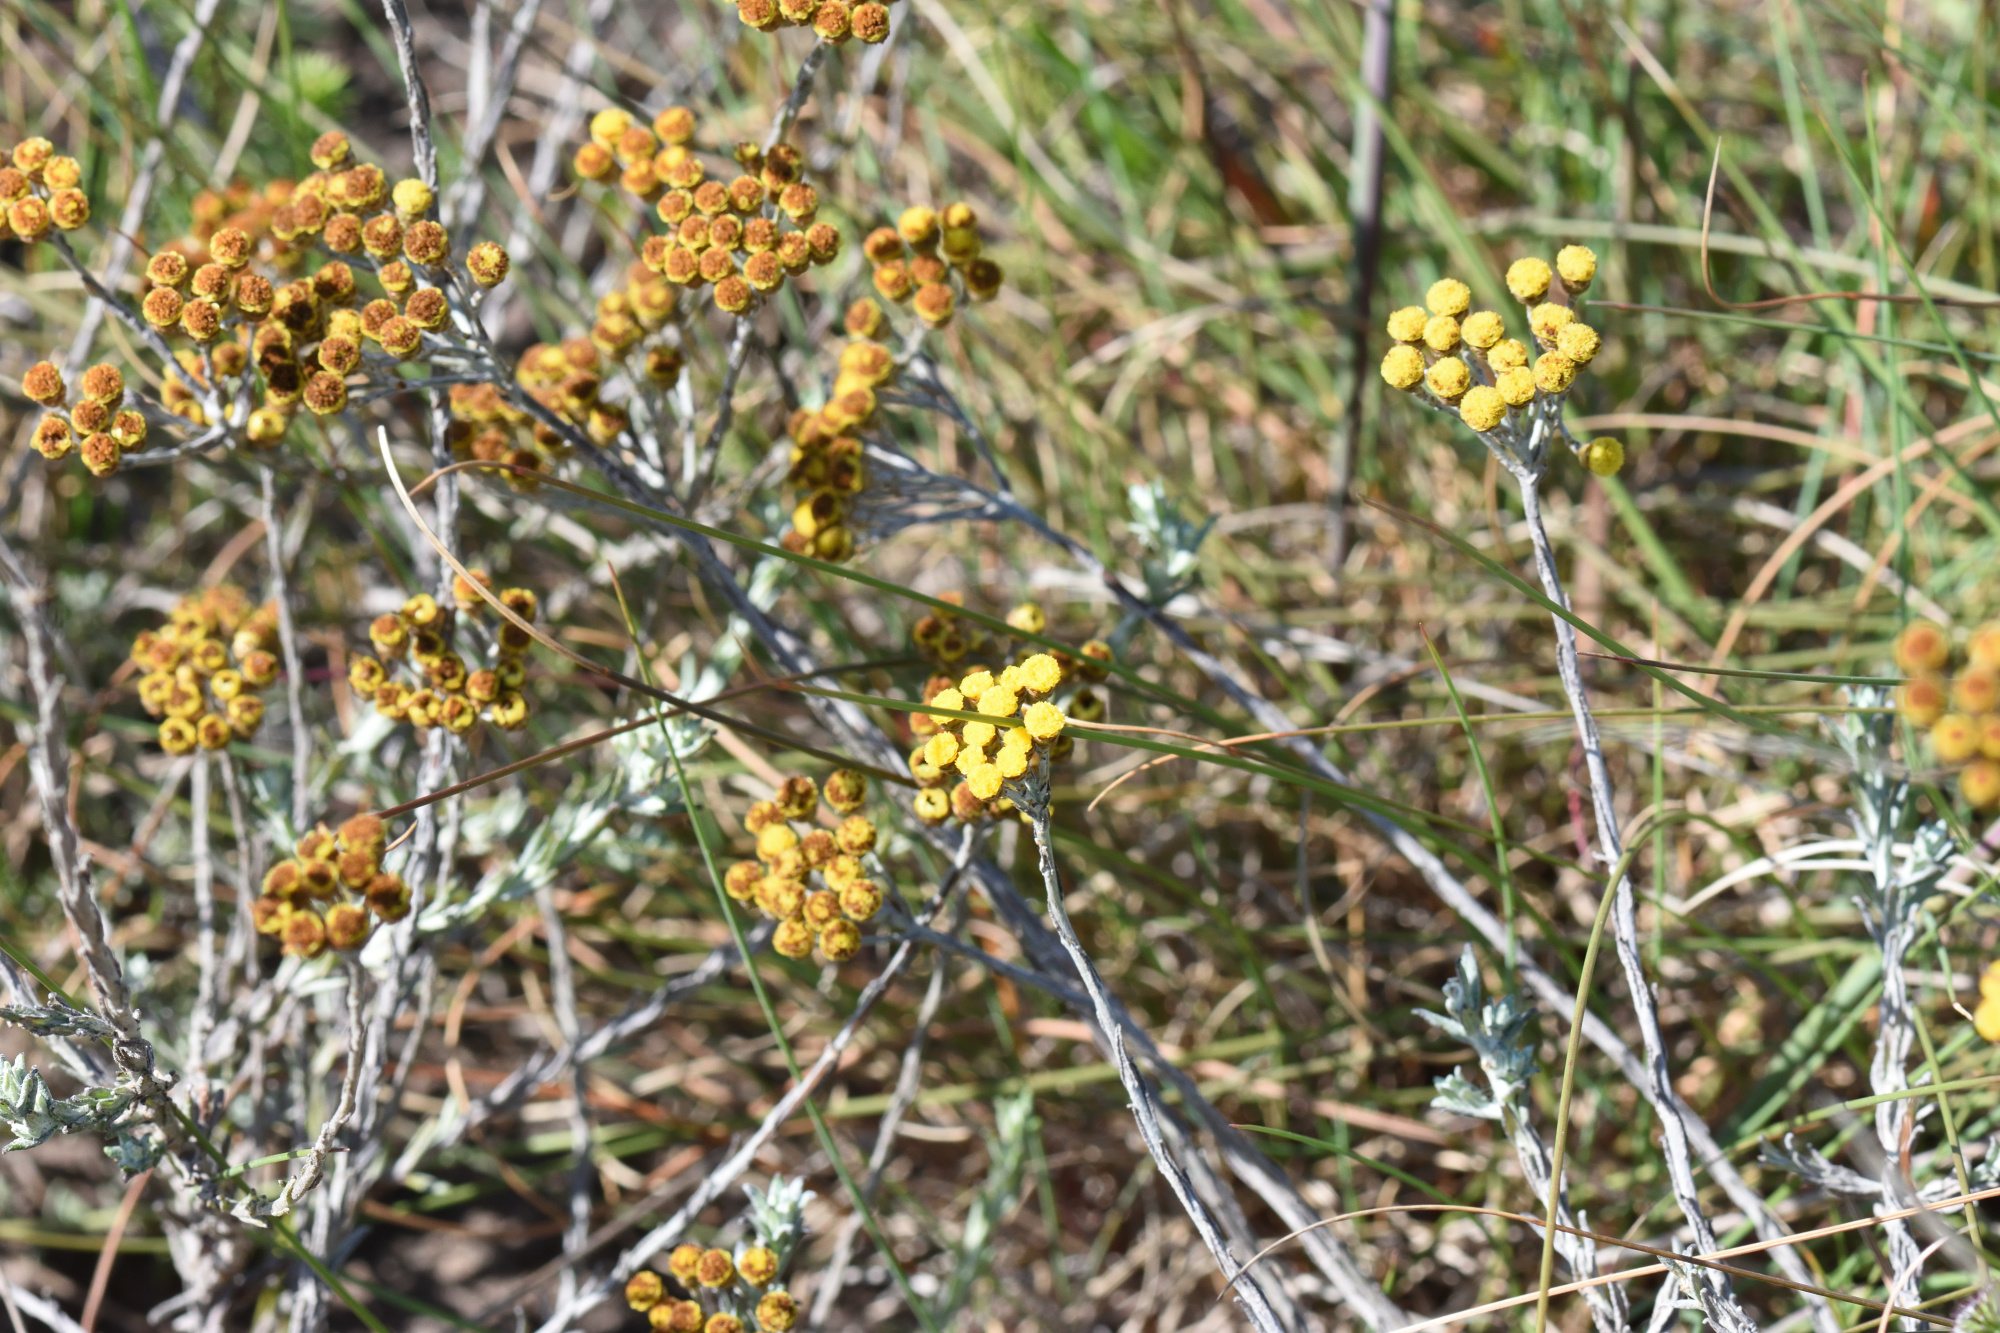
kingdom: Plantae
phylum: Tracheophyta
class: Magnoliopsida
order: Asterales
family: Asteraceae
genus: Helichrysum
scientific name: Helichrysum anomalum
